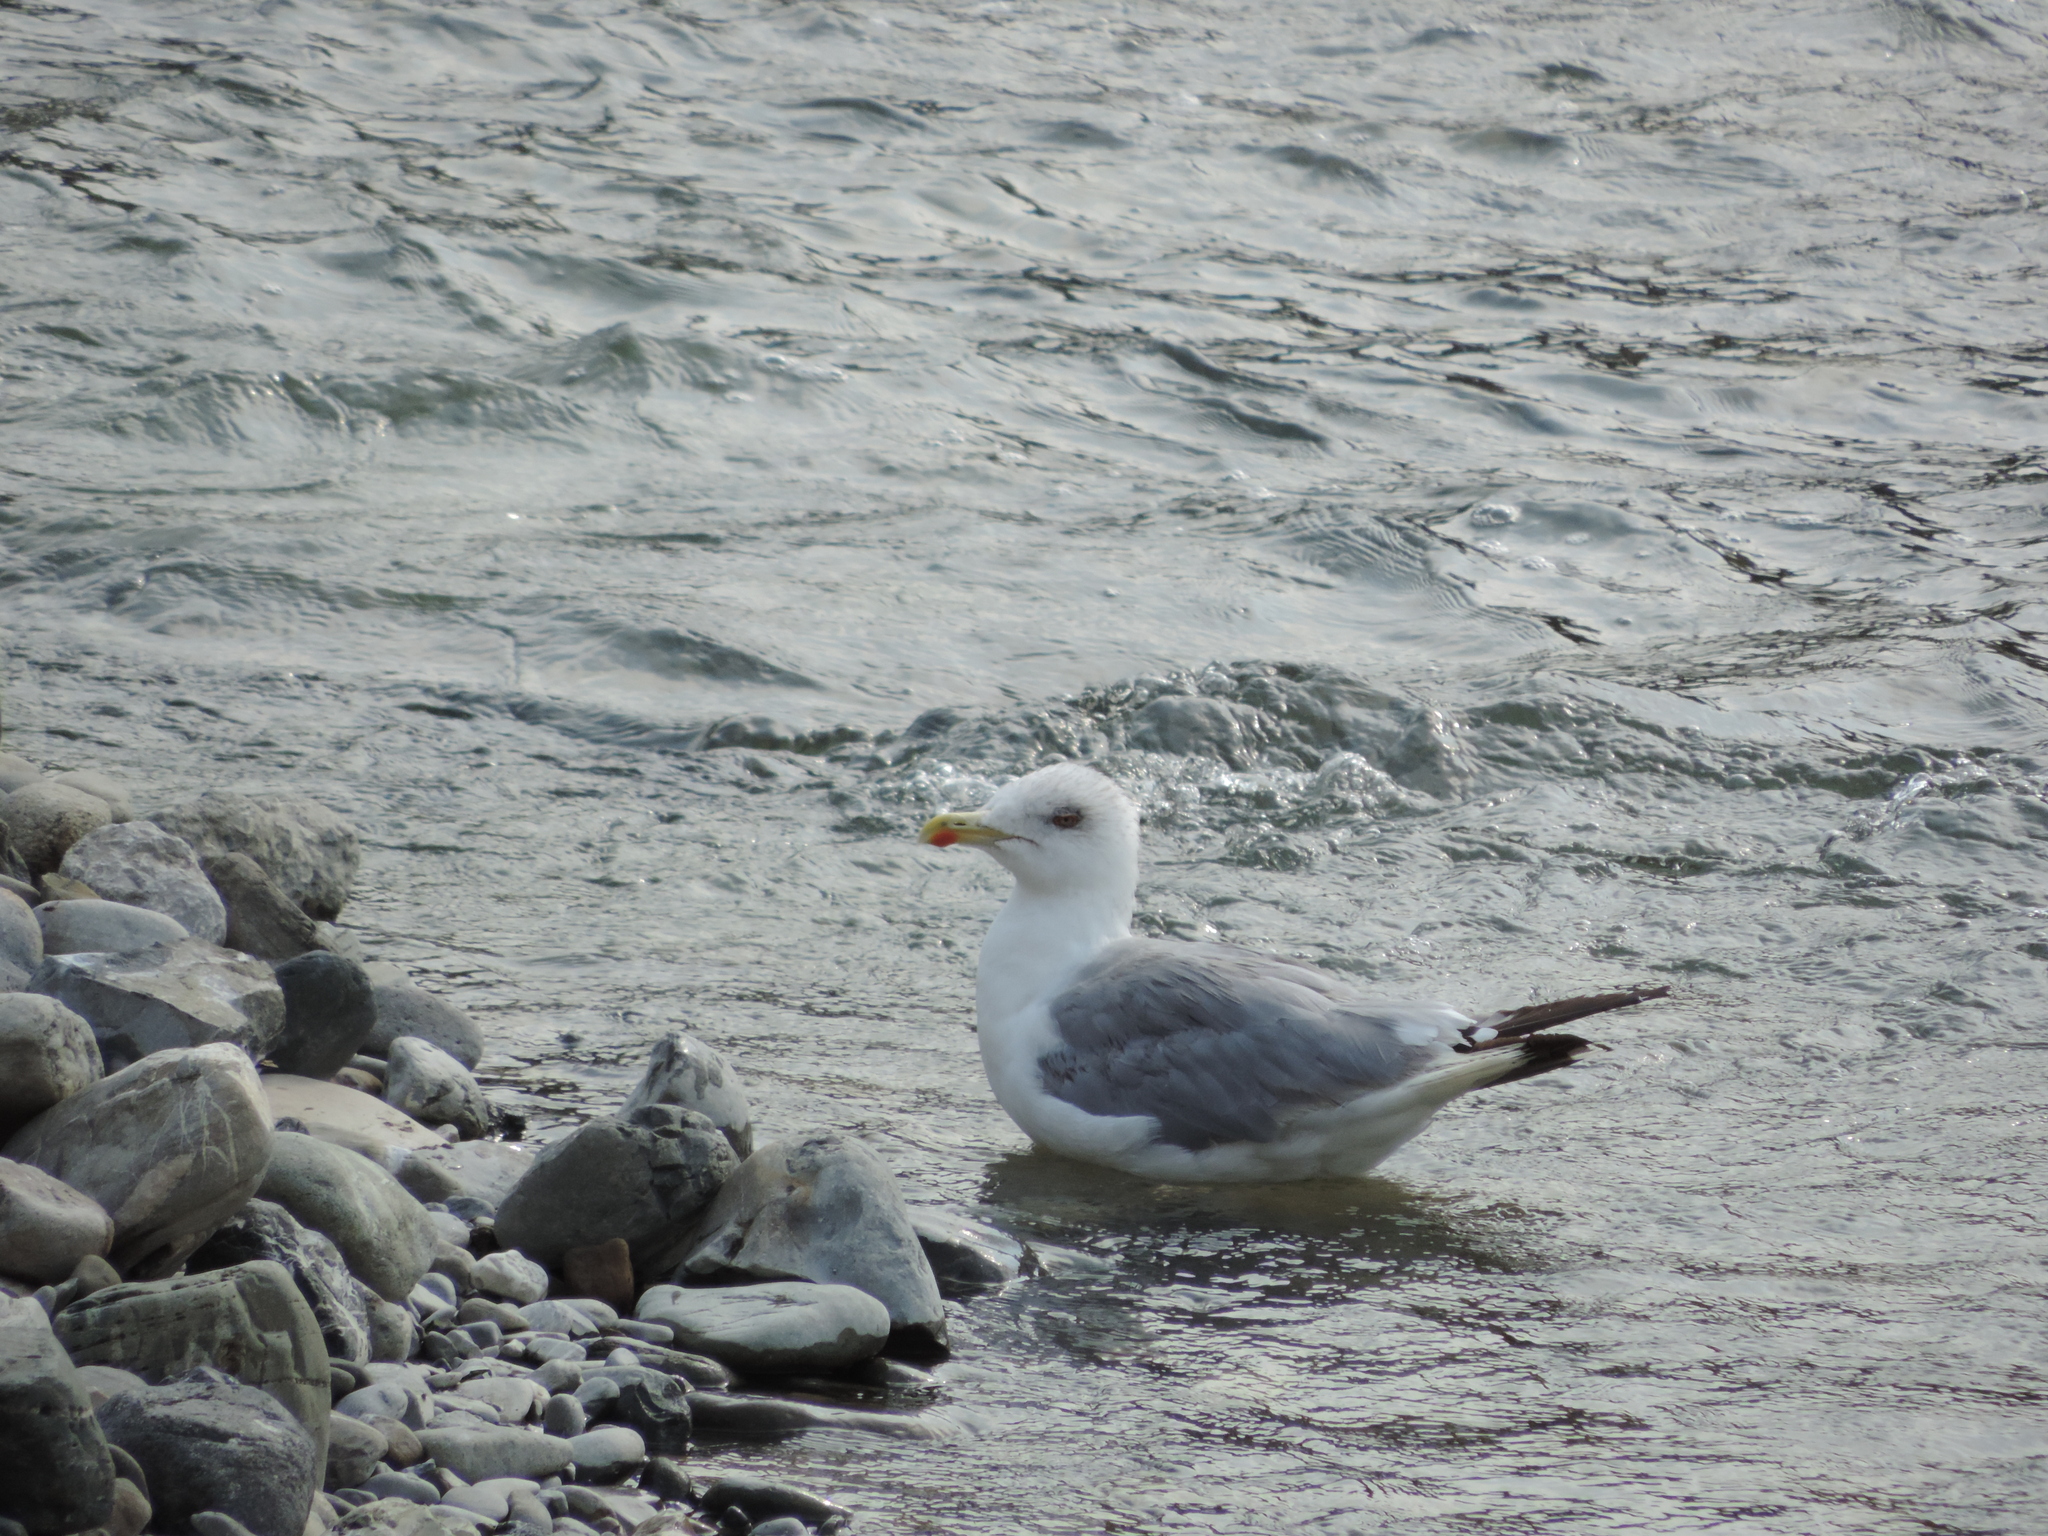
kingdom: Animalia
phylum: Chordata
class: Aves
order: Charadriiformes
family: Laridae
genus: Larus
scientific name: Larus michahellis
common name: Yellow-legged gull
